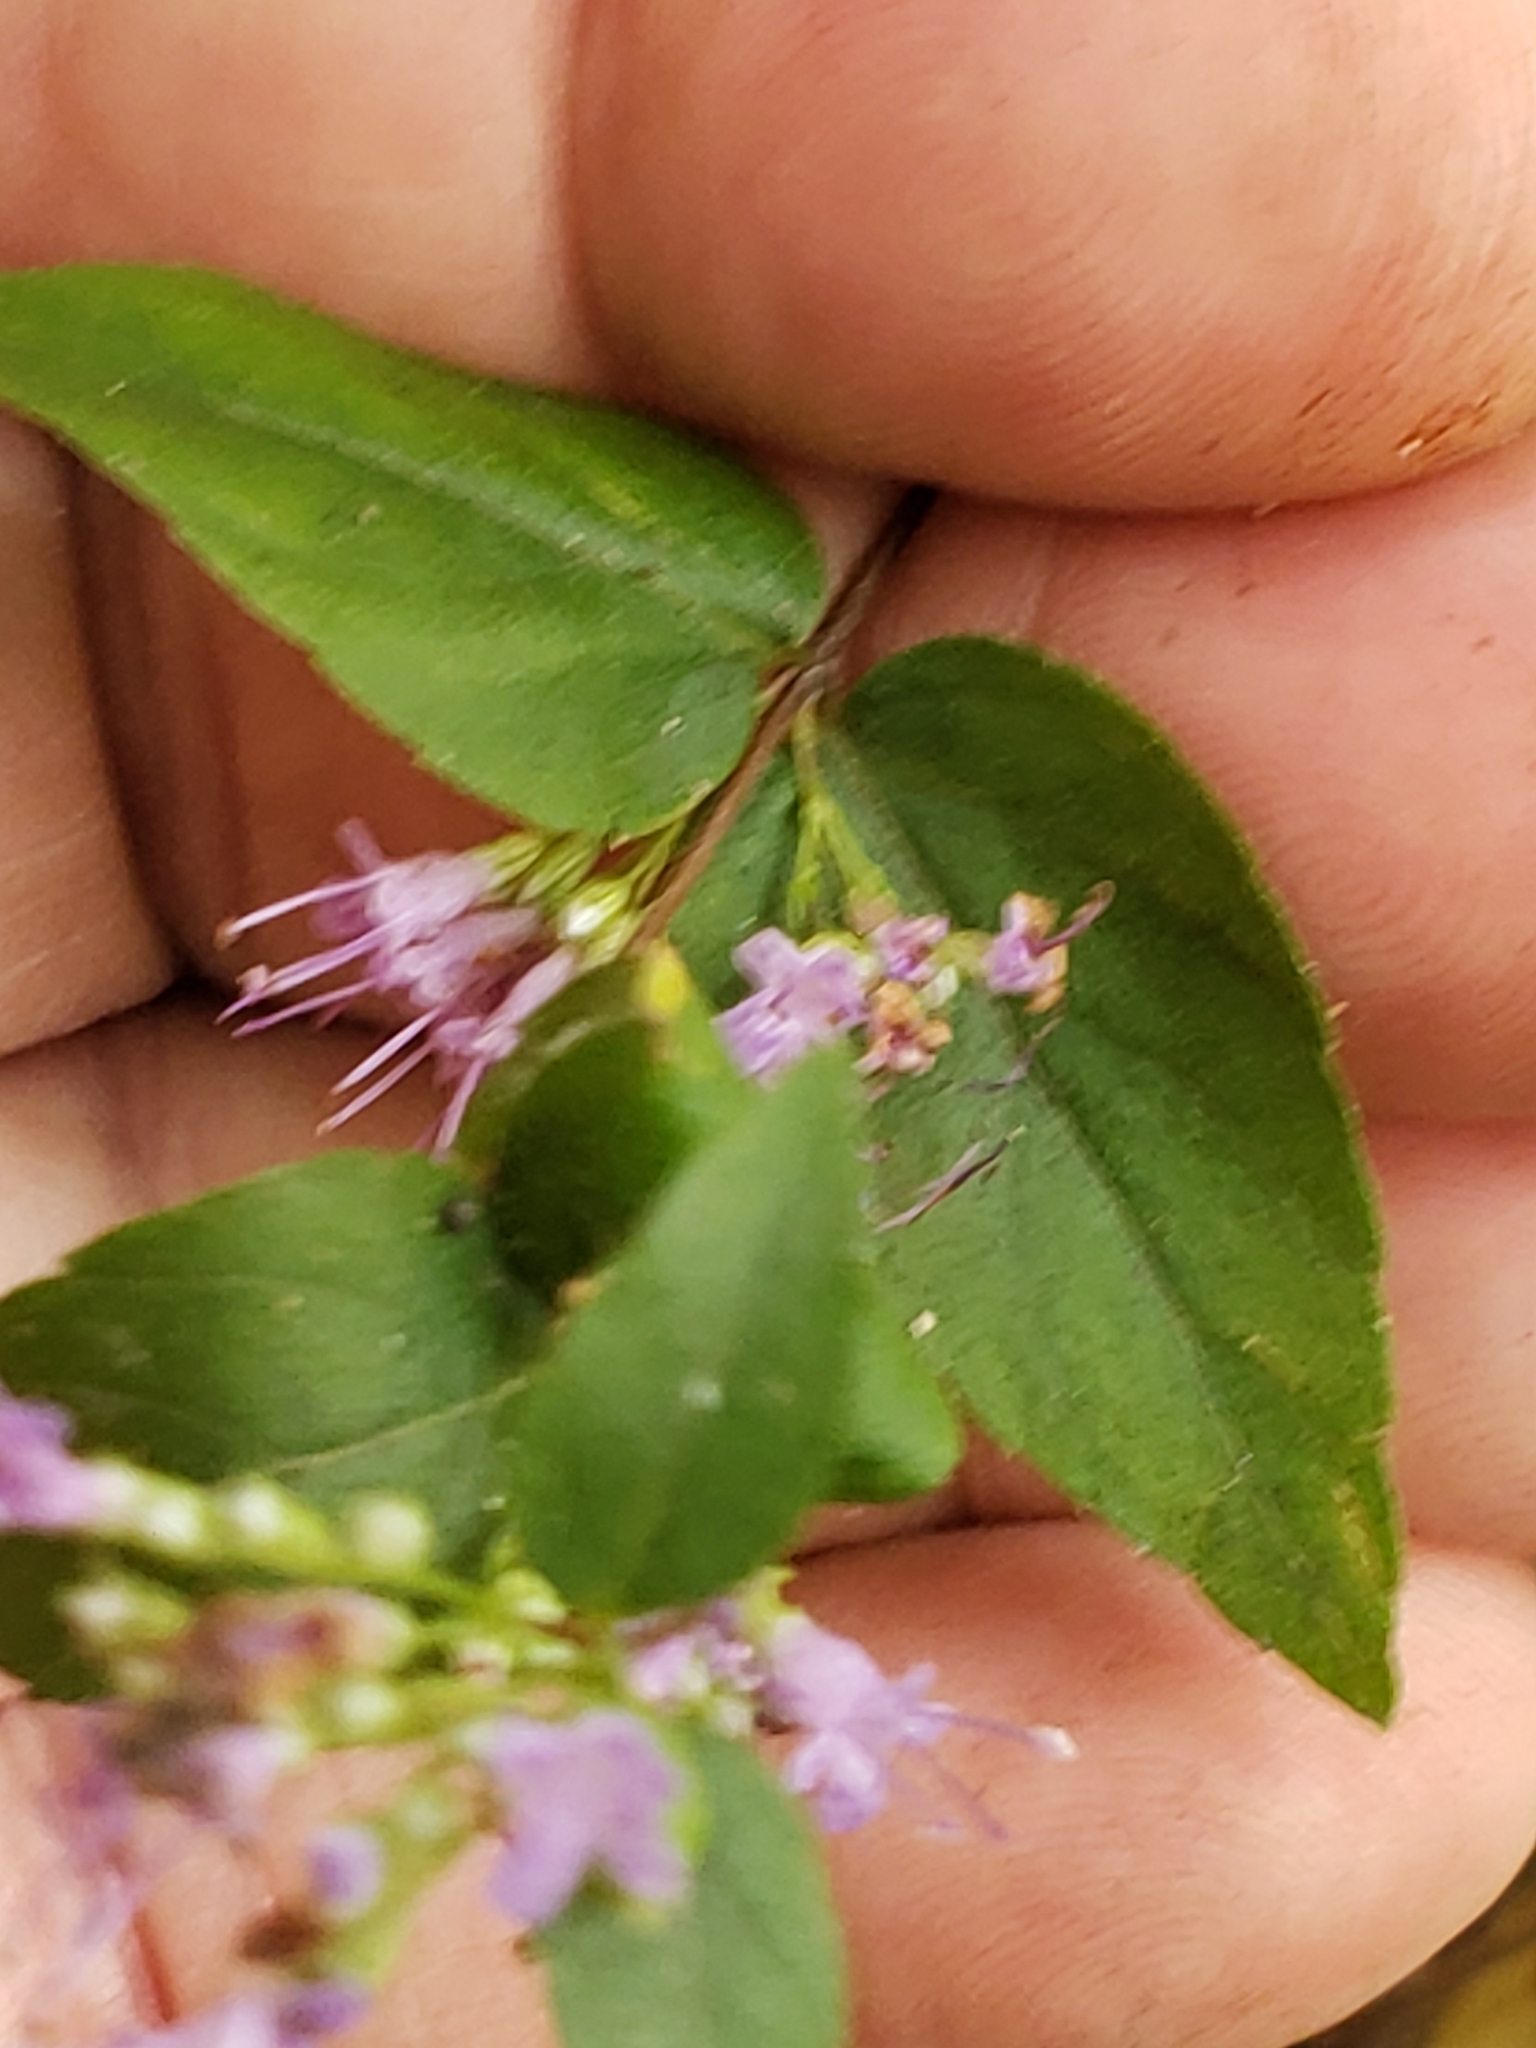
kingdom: Plantae
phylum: Tracheophyta
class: Magnoliopsida
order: Lamiales
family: Lamiaceae
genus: Cunila
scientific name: Cunila origanoides
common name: American dittany
